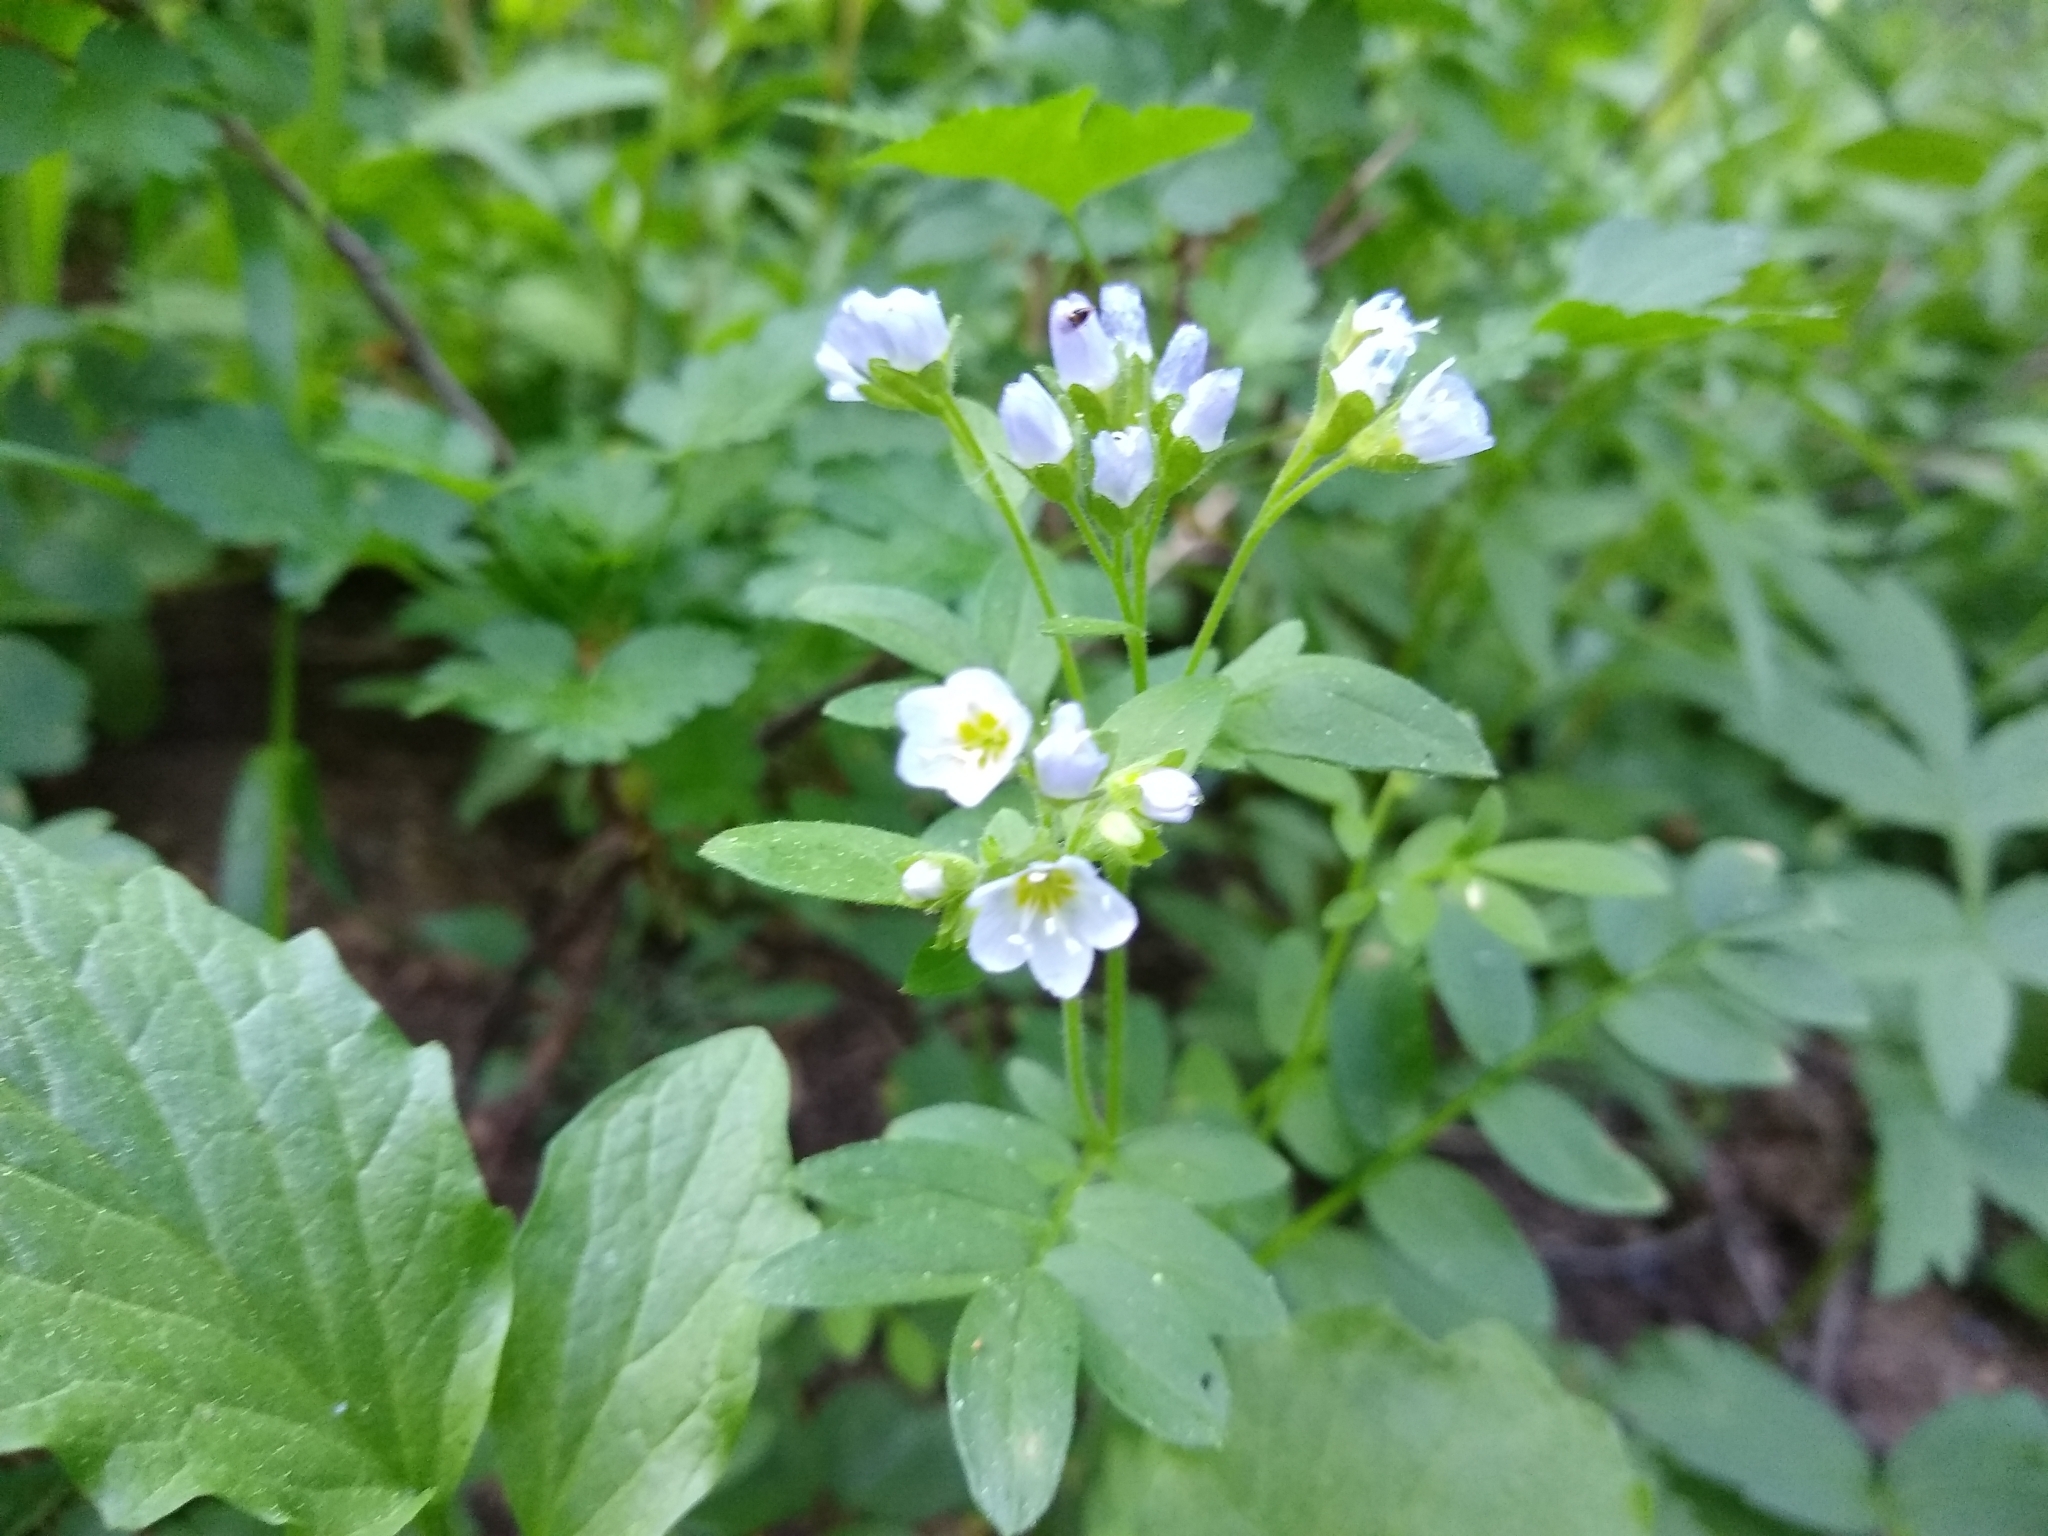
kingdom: Plantae
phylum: Tracheophyta
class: Magnoliopsida
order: Ericales
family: Polemoniaceae
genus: Polemonium
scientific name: Polemonium californicum
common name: California jacob's ladder
